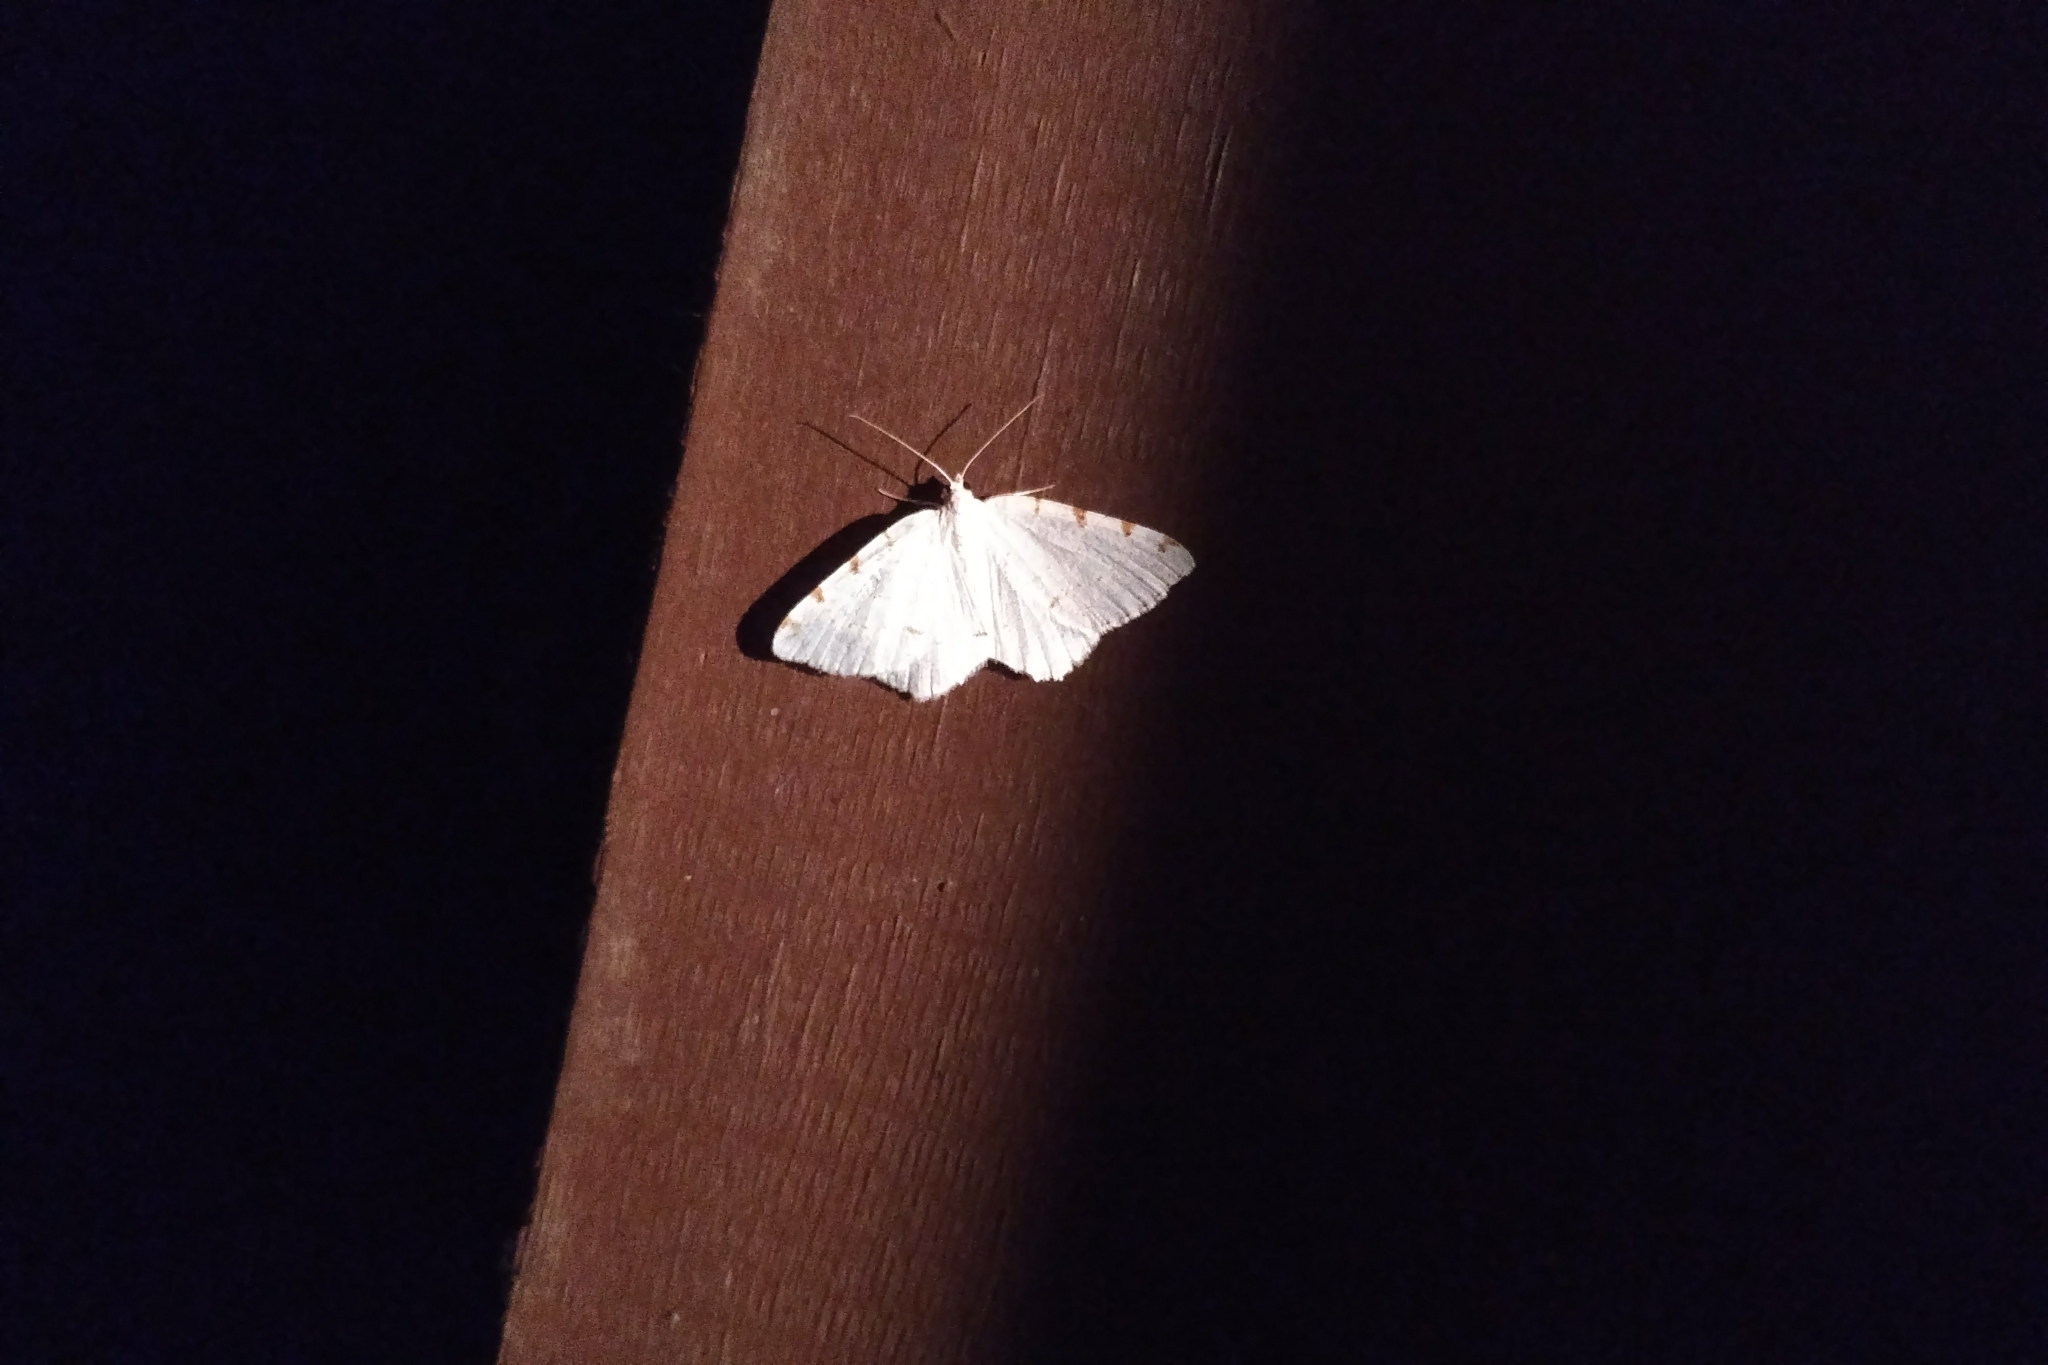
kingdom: Animalia
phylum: Arthropoda
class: Insecta
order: Lepidoptera
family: Geometridae
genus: Macaria
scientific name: Macaria pustularia
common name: Lesser maple spanworm moth
